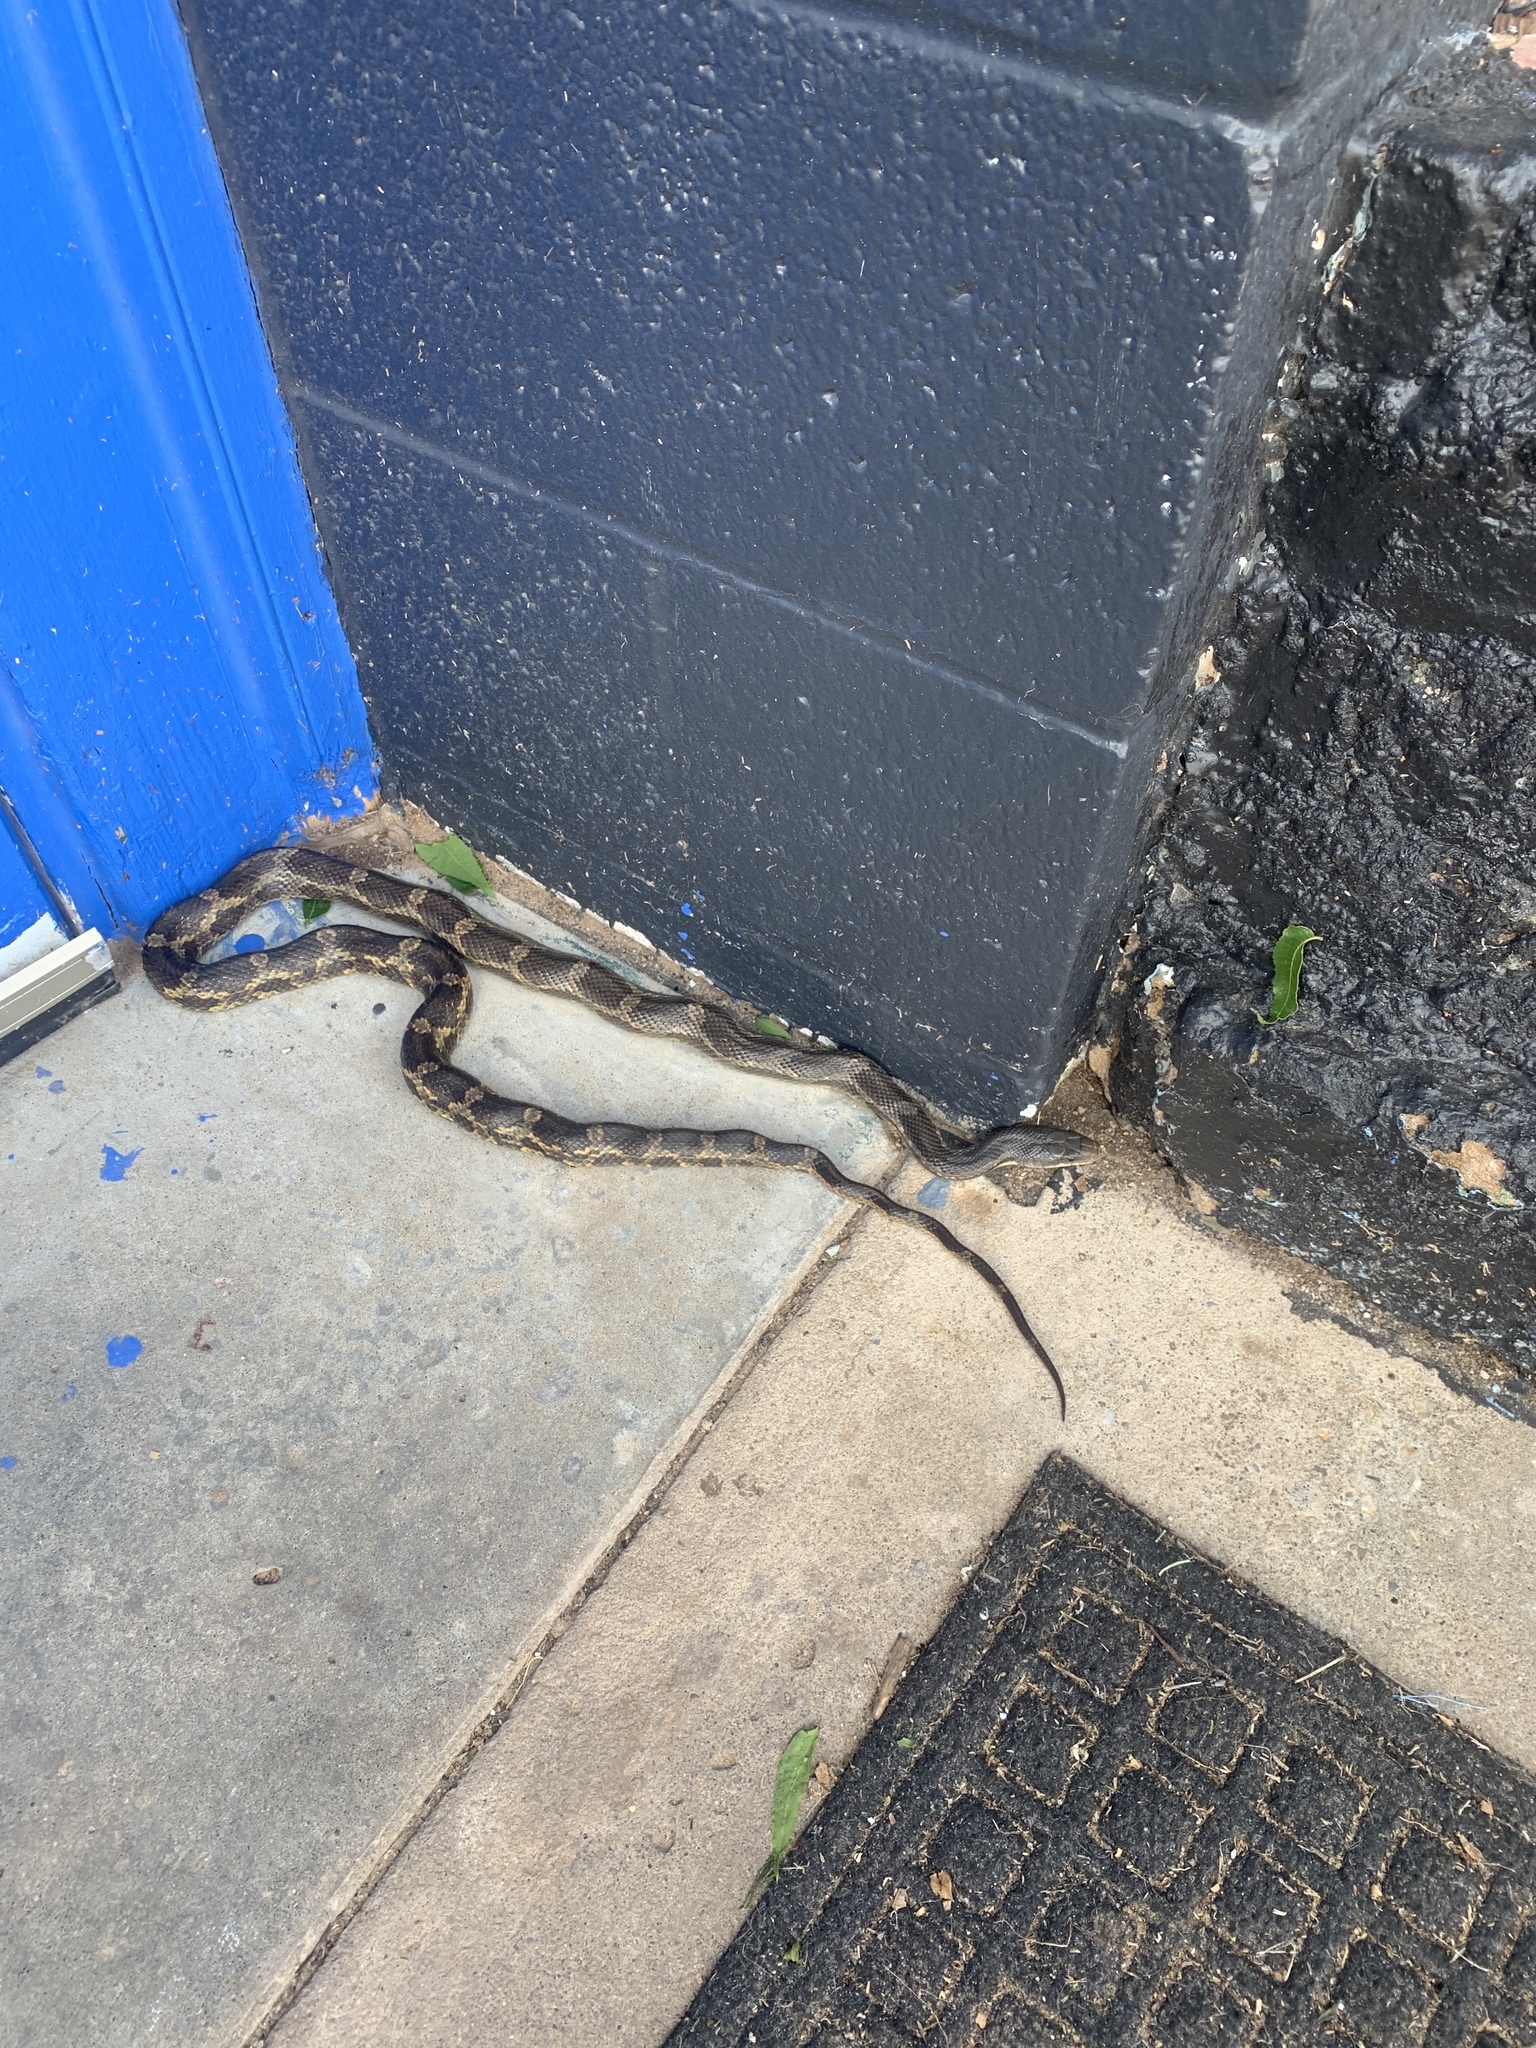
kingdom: Animalia
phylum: Chordata
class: Squamata
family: Colubridae
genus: Pantherophis
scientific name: Pantherophis obsoletus
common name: Black rat snake
